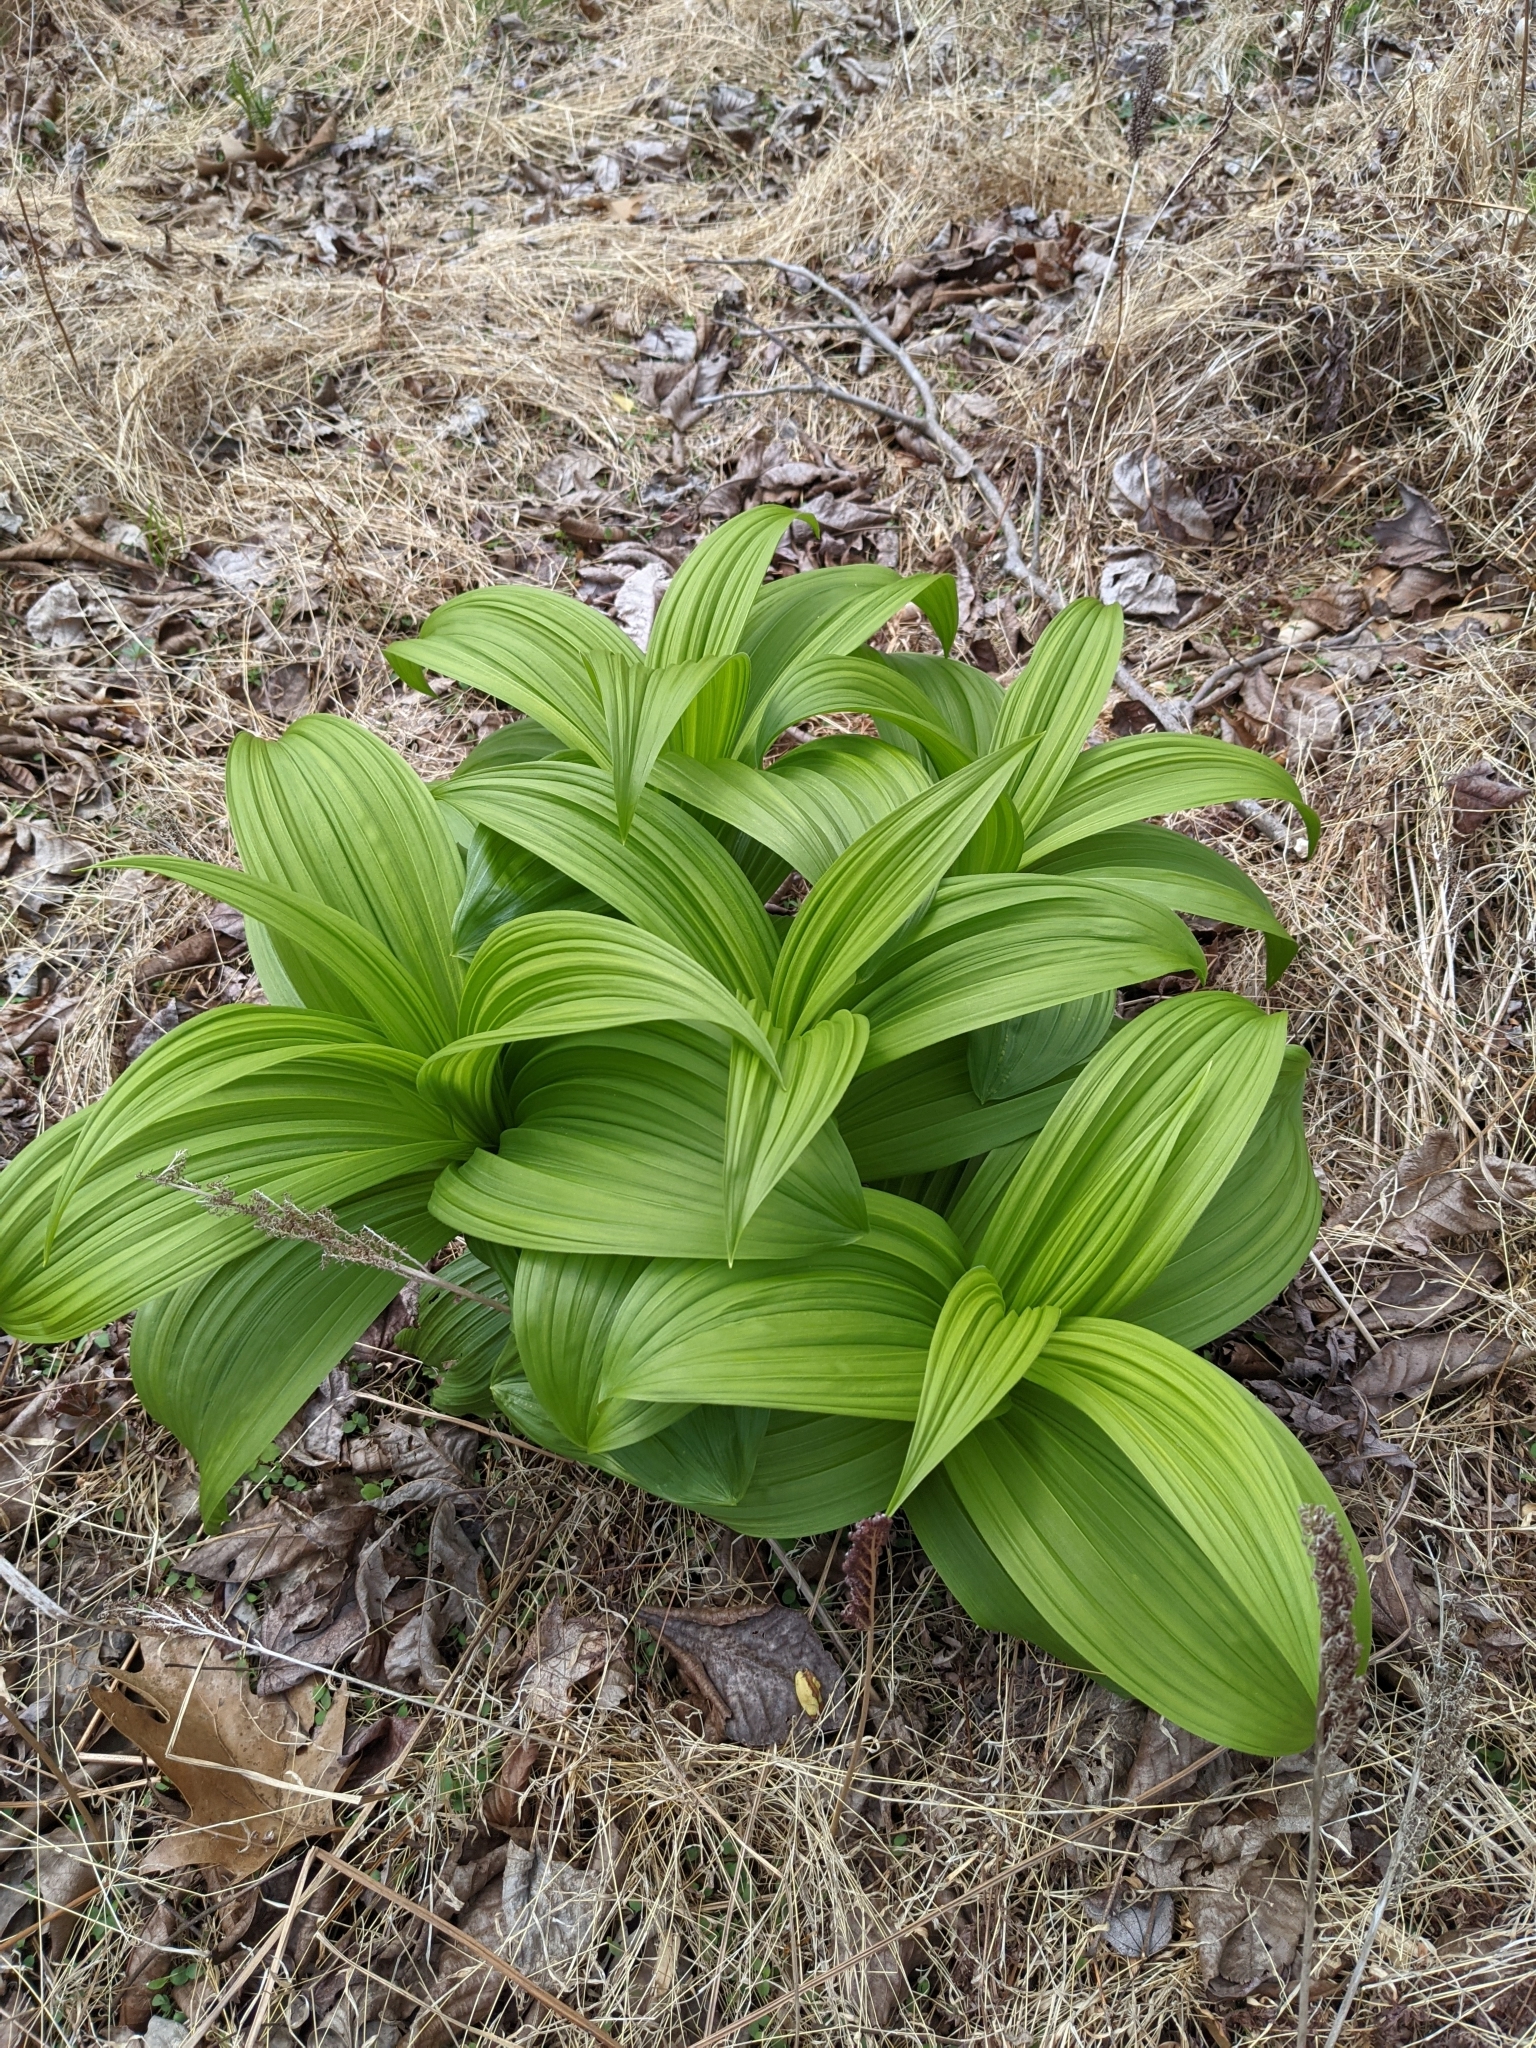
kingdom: Plantae
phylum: Tracheophyta
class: Liliopsida
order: Liliales
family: Melanthiaceae
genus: Veratrum
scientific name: Veratrum viride
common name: American false hellebore
